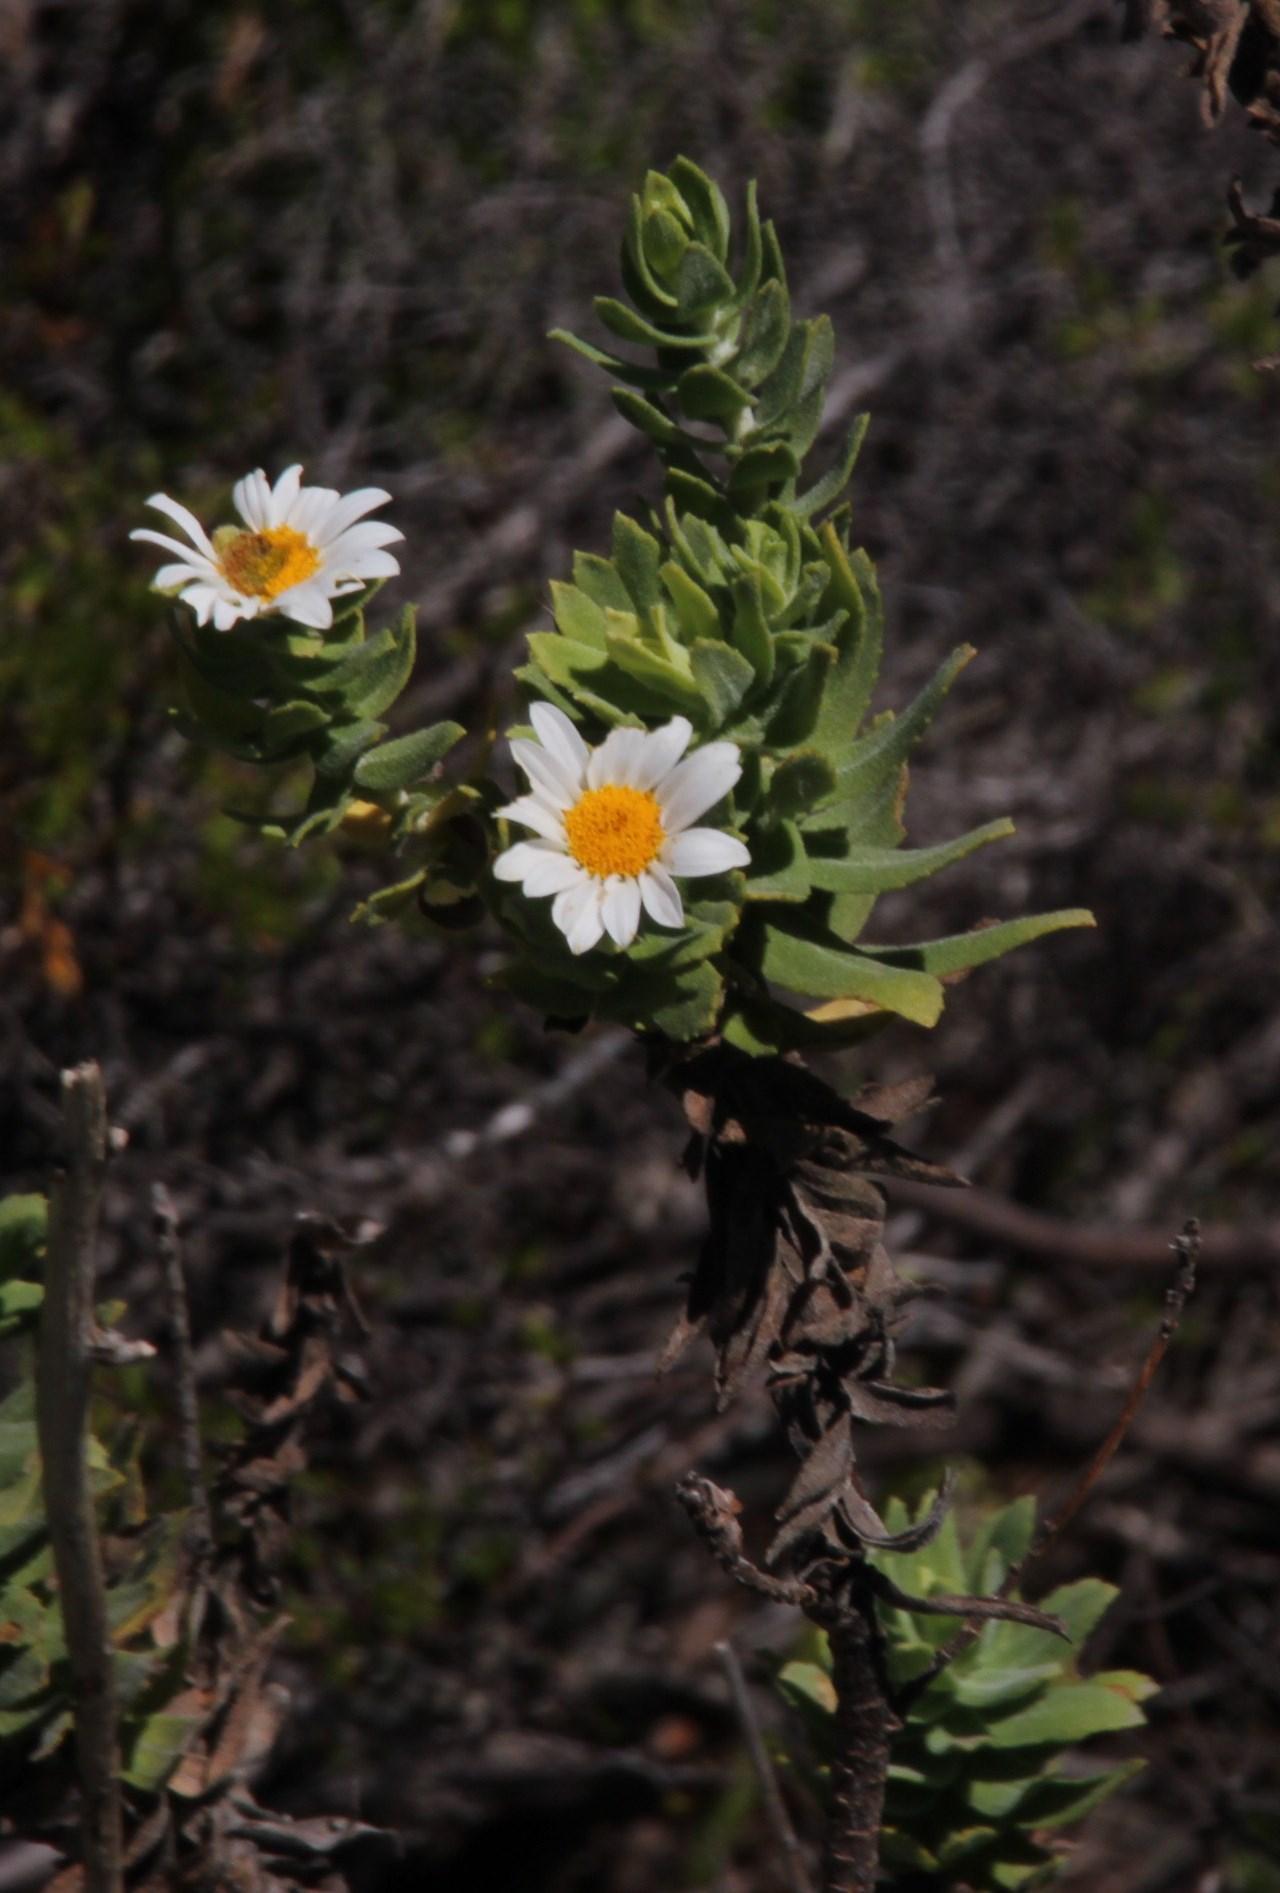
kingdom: Plantae
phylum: Tracheophyta
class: Magnoliopsida
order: Asterales
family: Asteraceae
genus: Osmitopsis
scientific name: Osmitopsis asteriscoides
